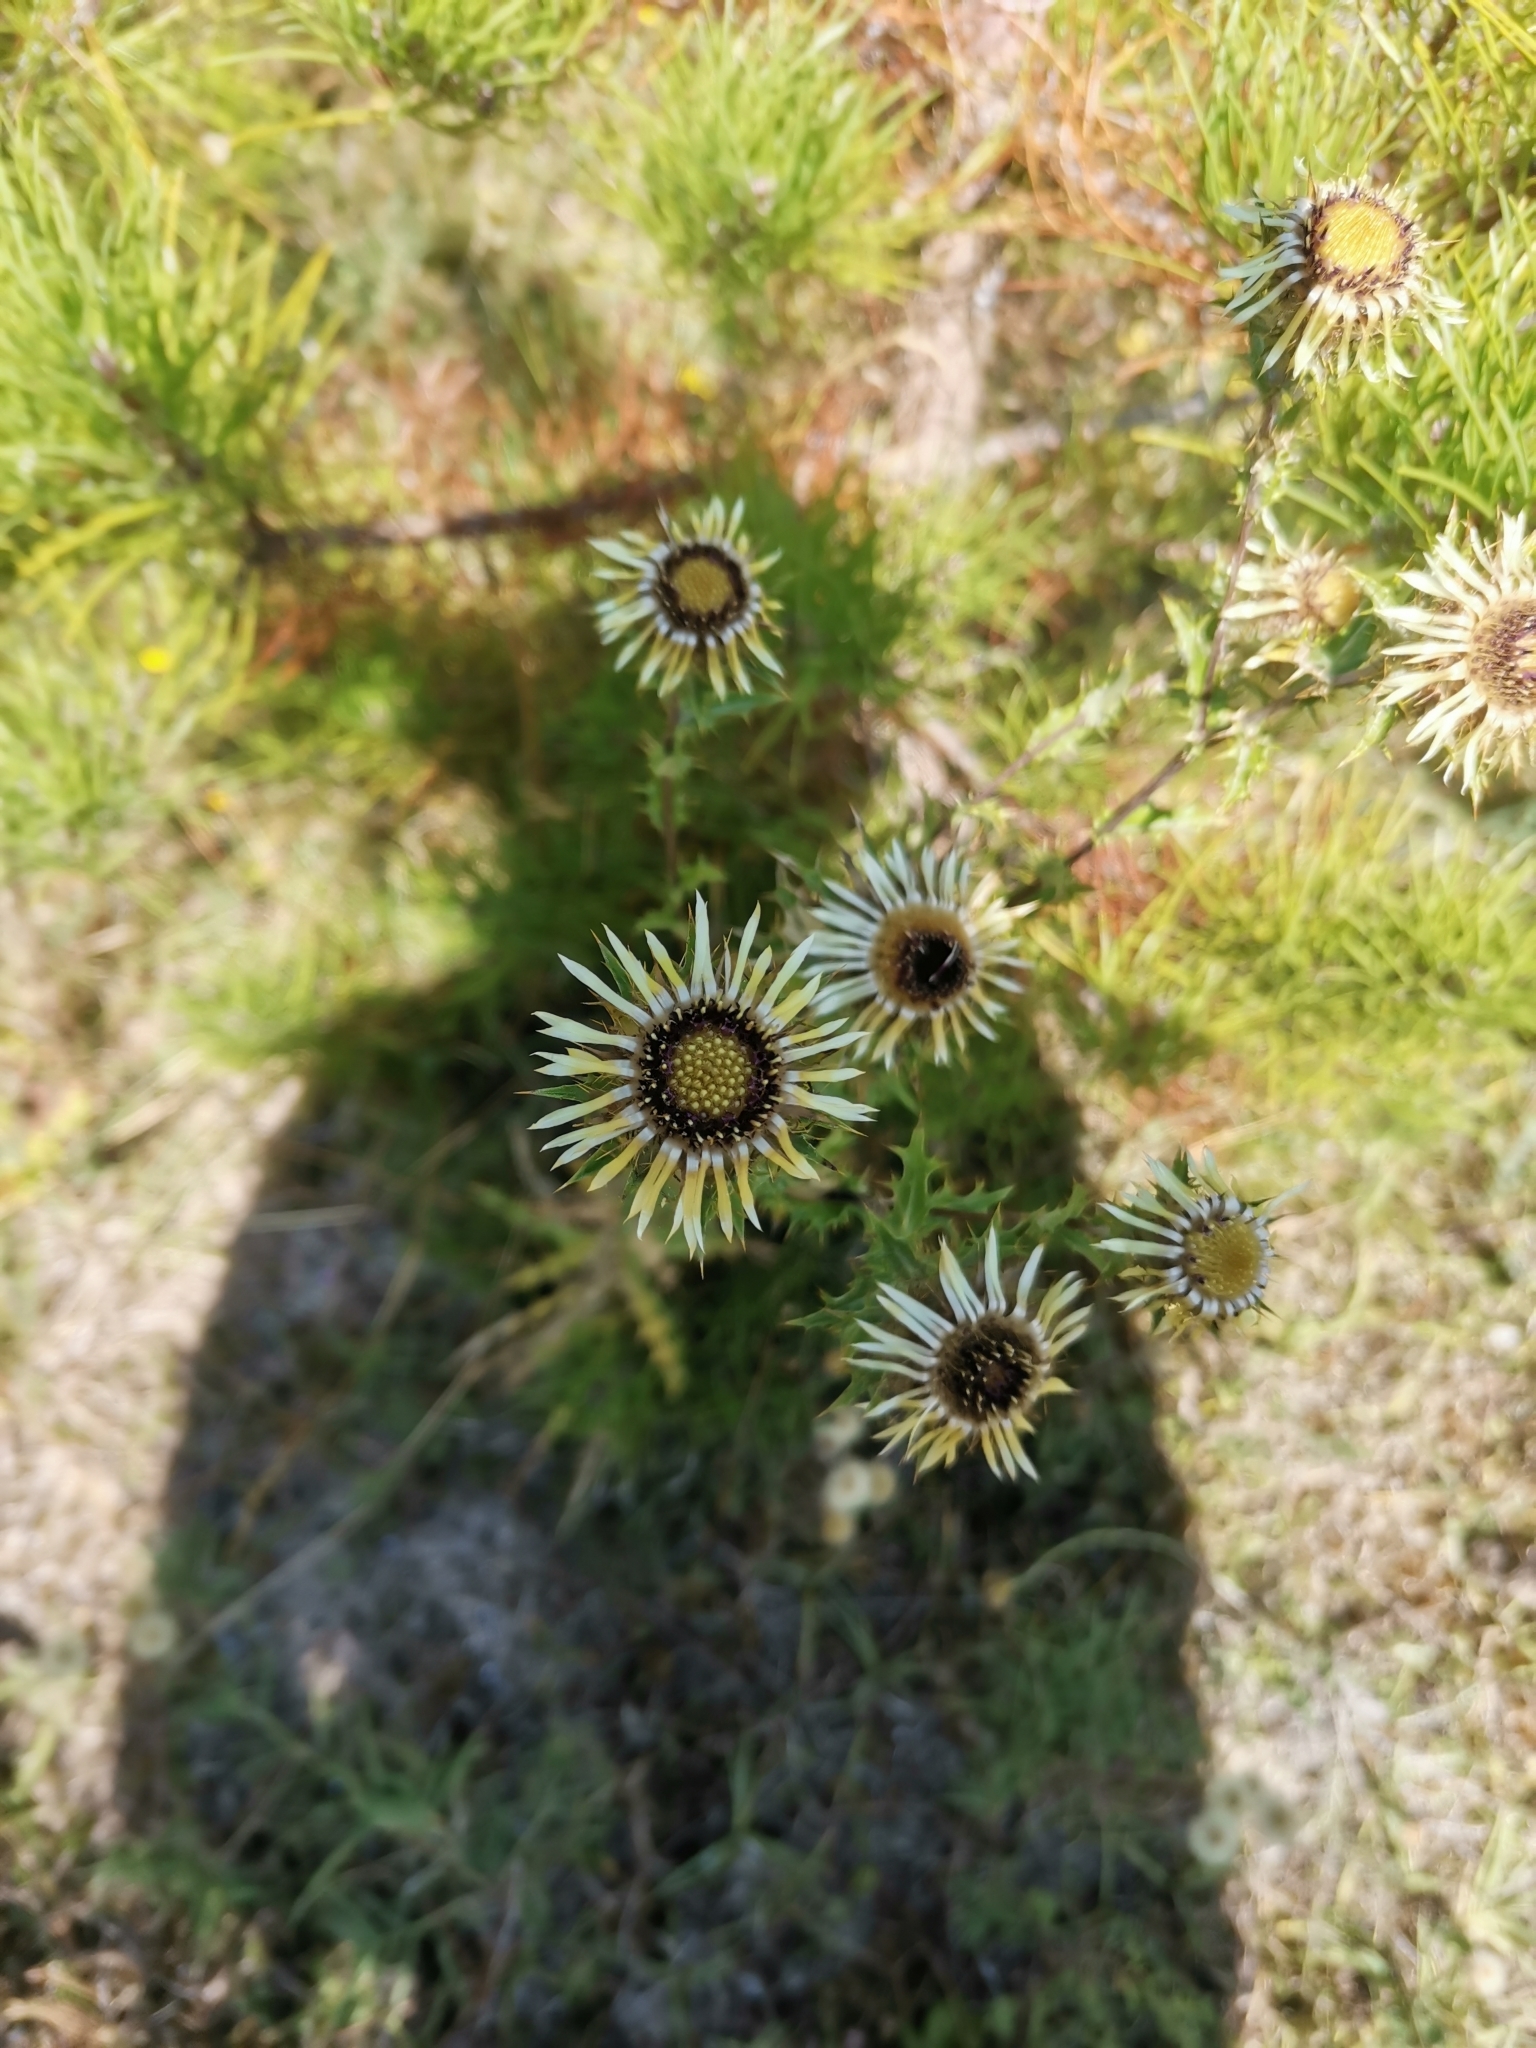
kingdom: Plantae
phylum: Tracheophyta
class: Magnoliopsida
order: Asterales
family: Asteraceae
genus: Carlina
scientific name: Carlina vulgaris
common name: Carline thistle
